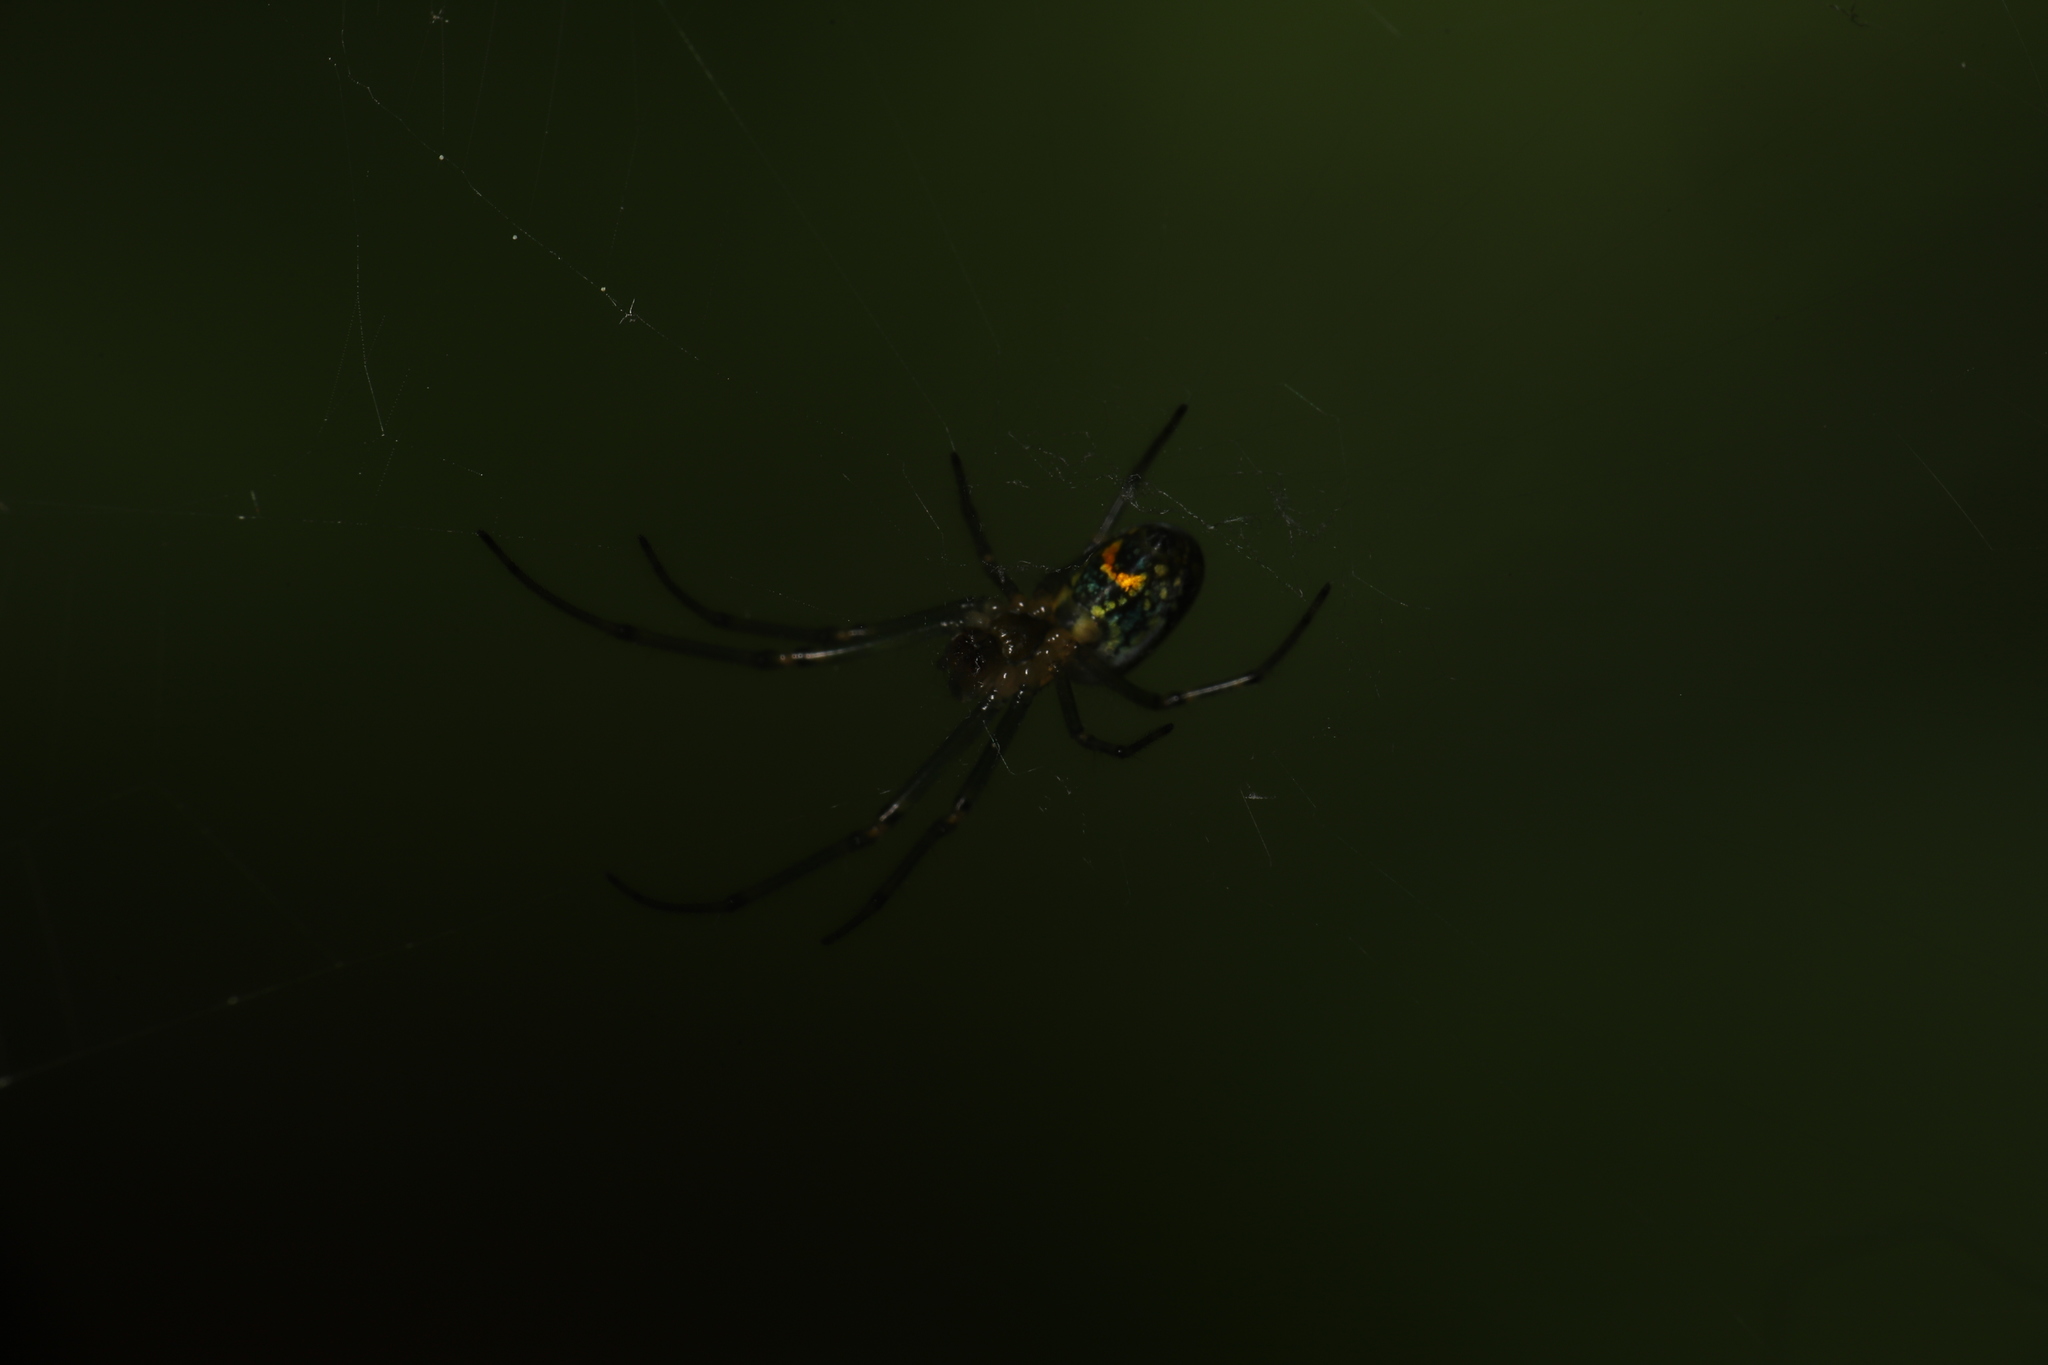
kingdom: Animalia
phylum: Arthropoda
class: Arachnida
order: Araneae
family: Tetragnathidae
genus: Leucauge
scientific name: Leucauge venusta
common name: Longjawed orb weavers
